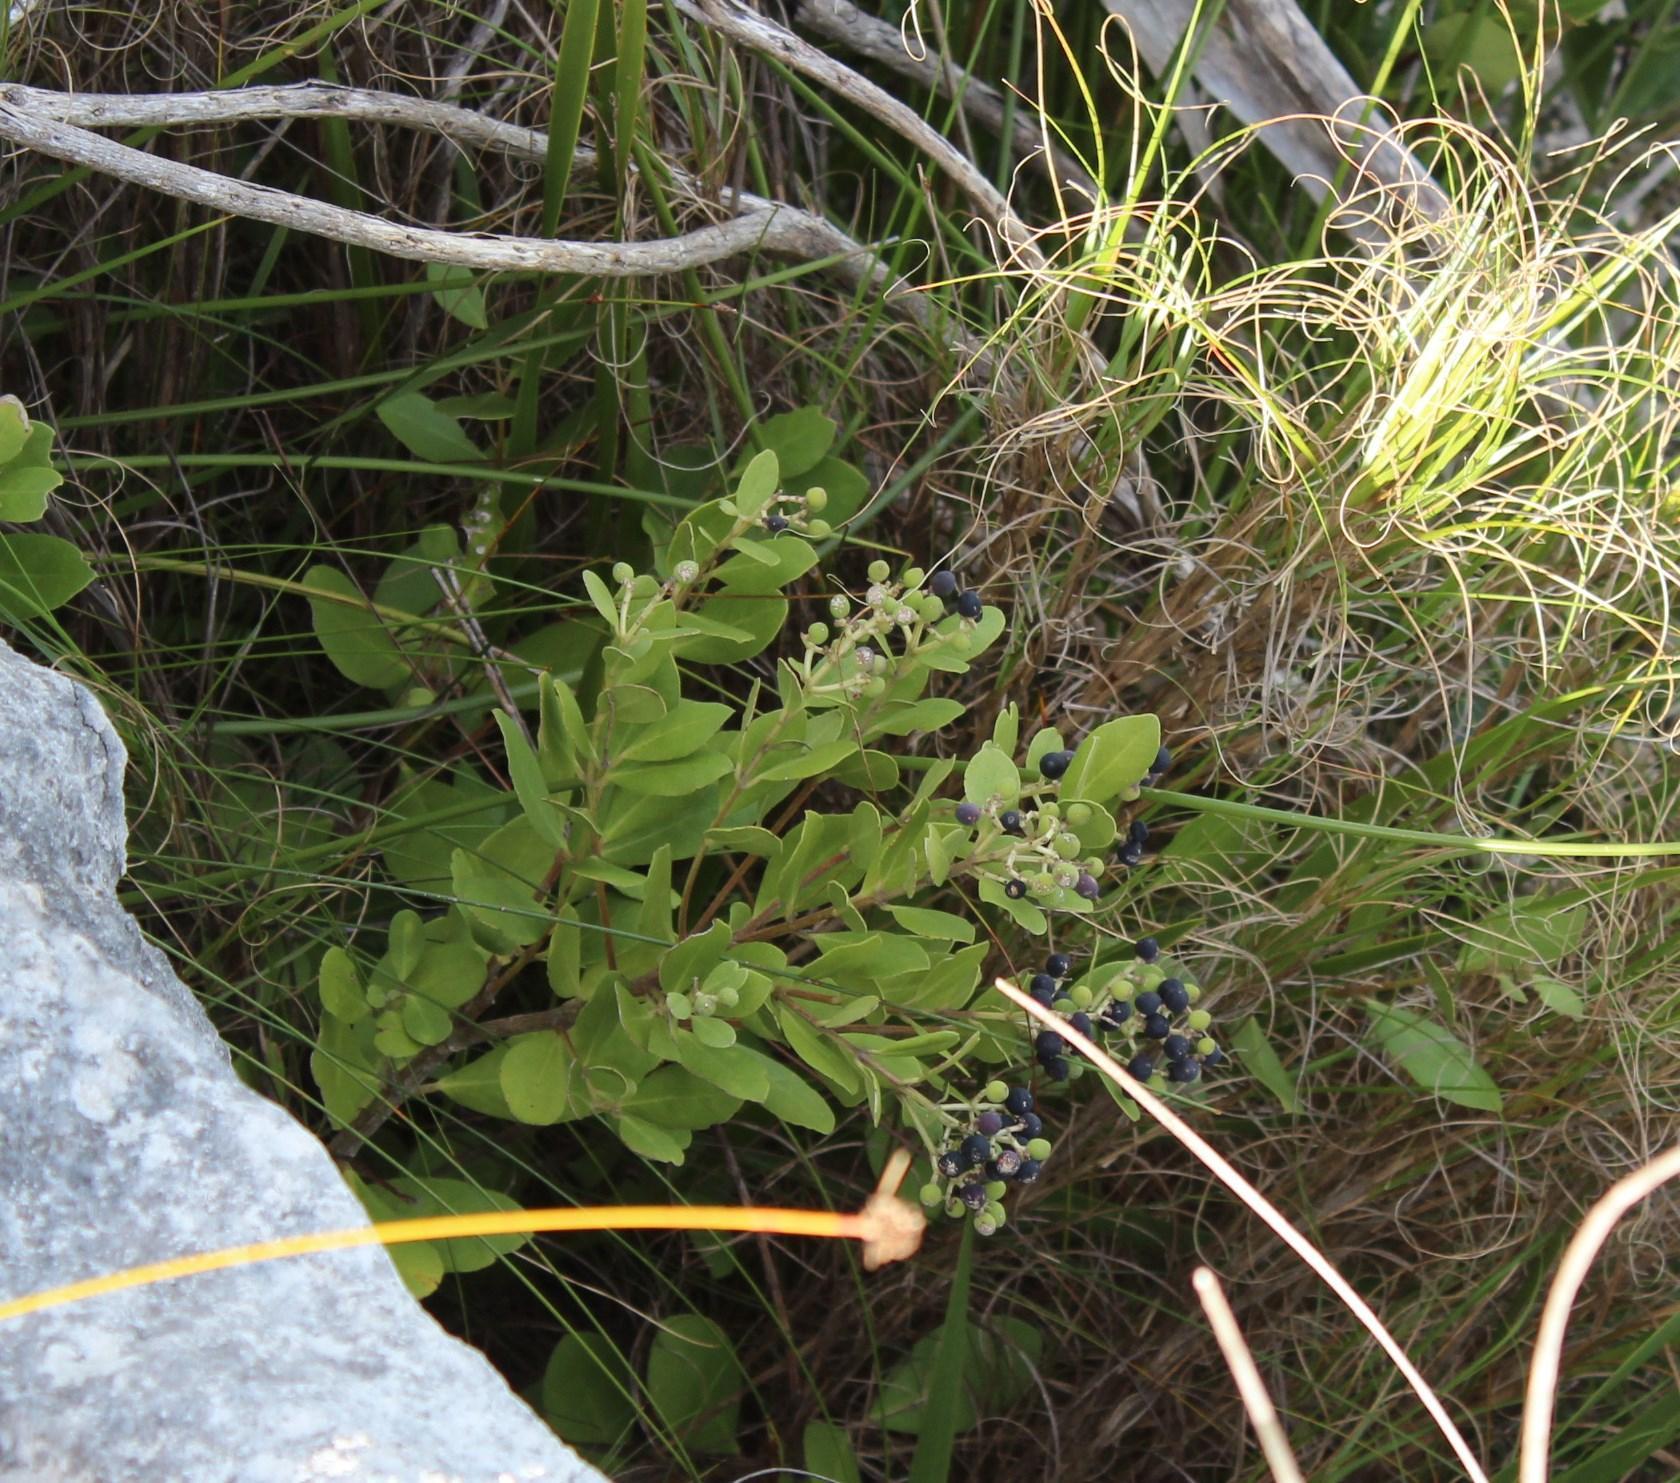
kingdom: Plantae
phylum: Tracheophyta
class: Magnoliopsida
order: Lamiales
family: Oleaceae
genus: Olea
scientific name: Olea capensis
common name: Black ironwood
